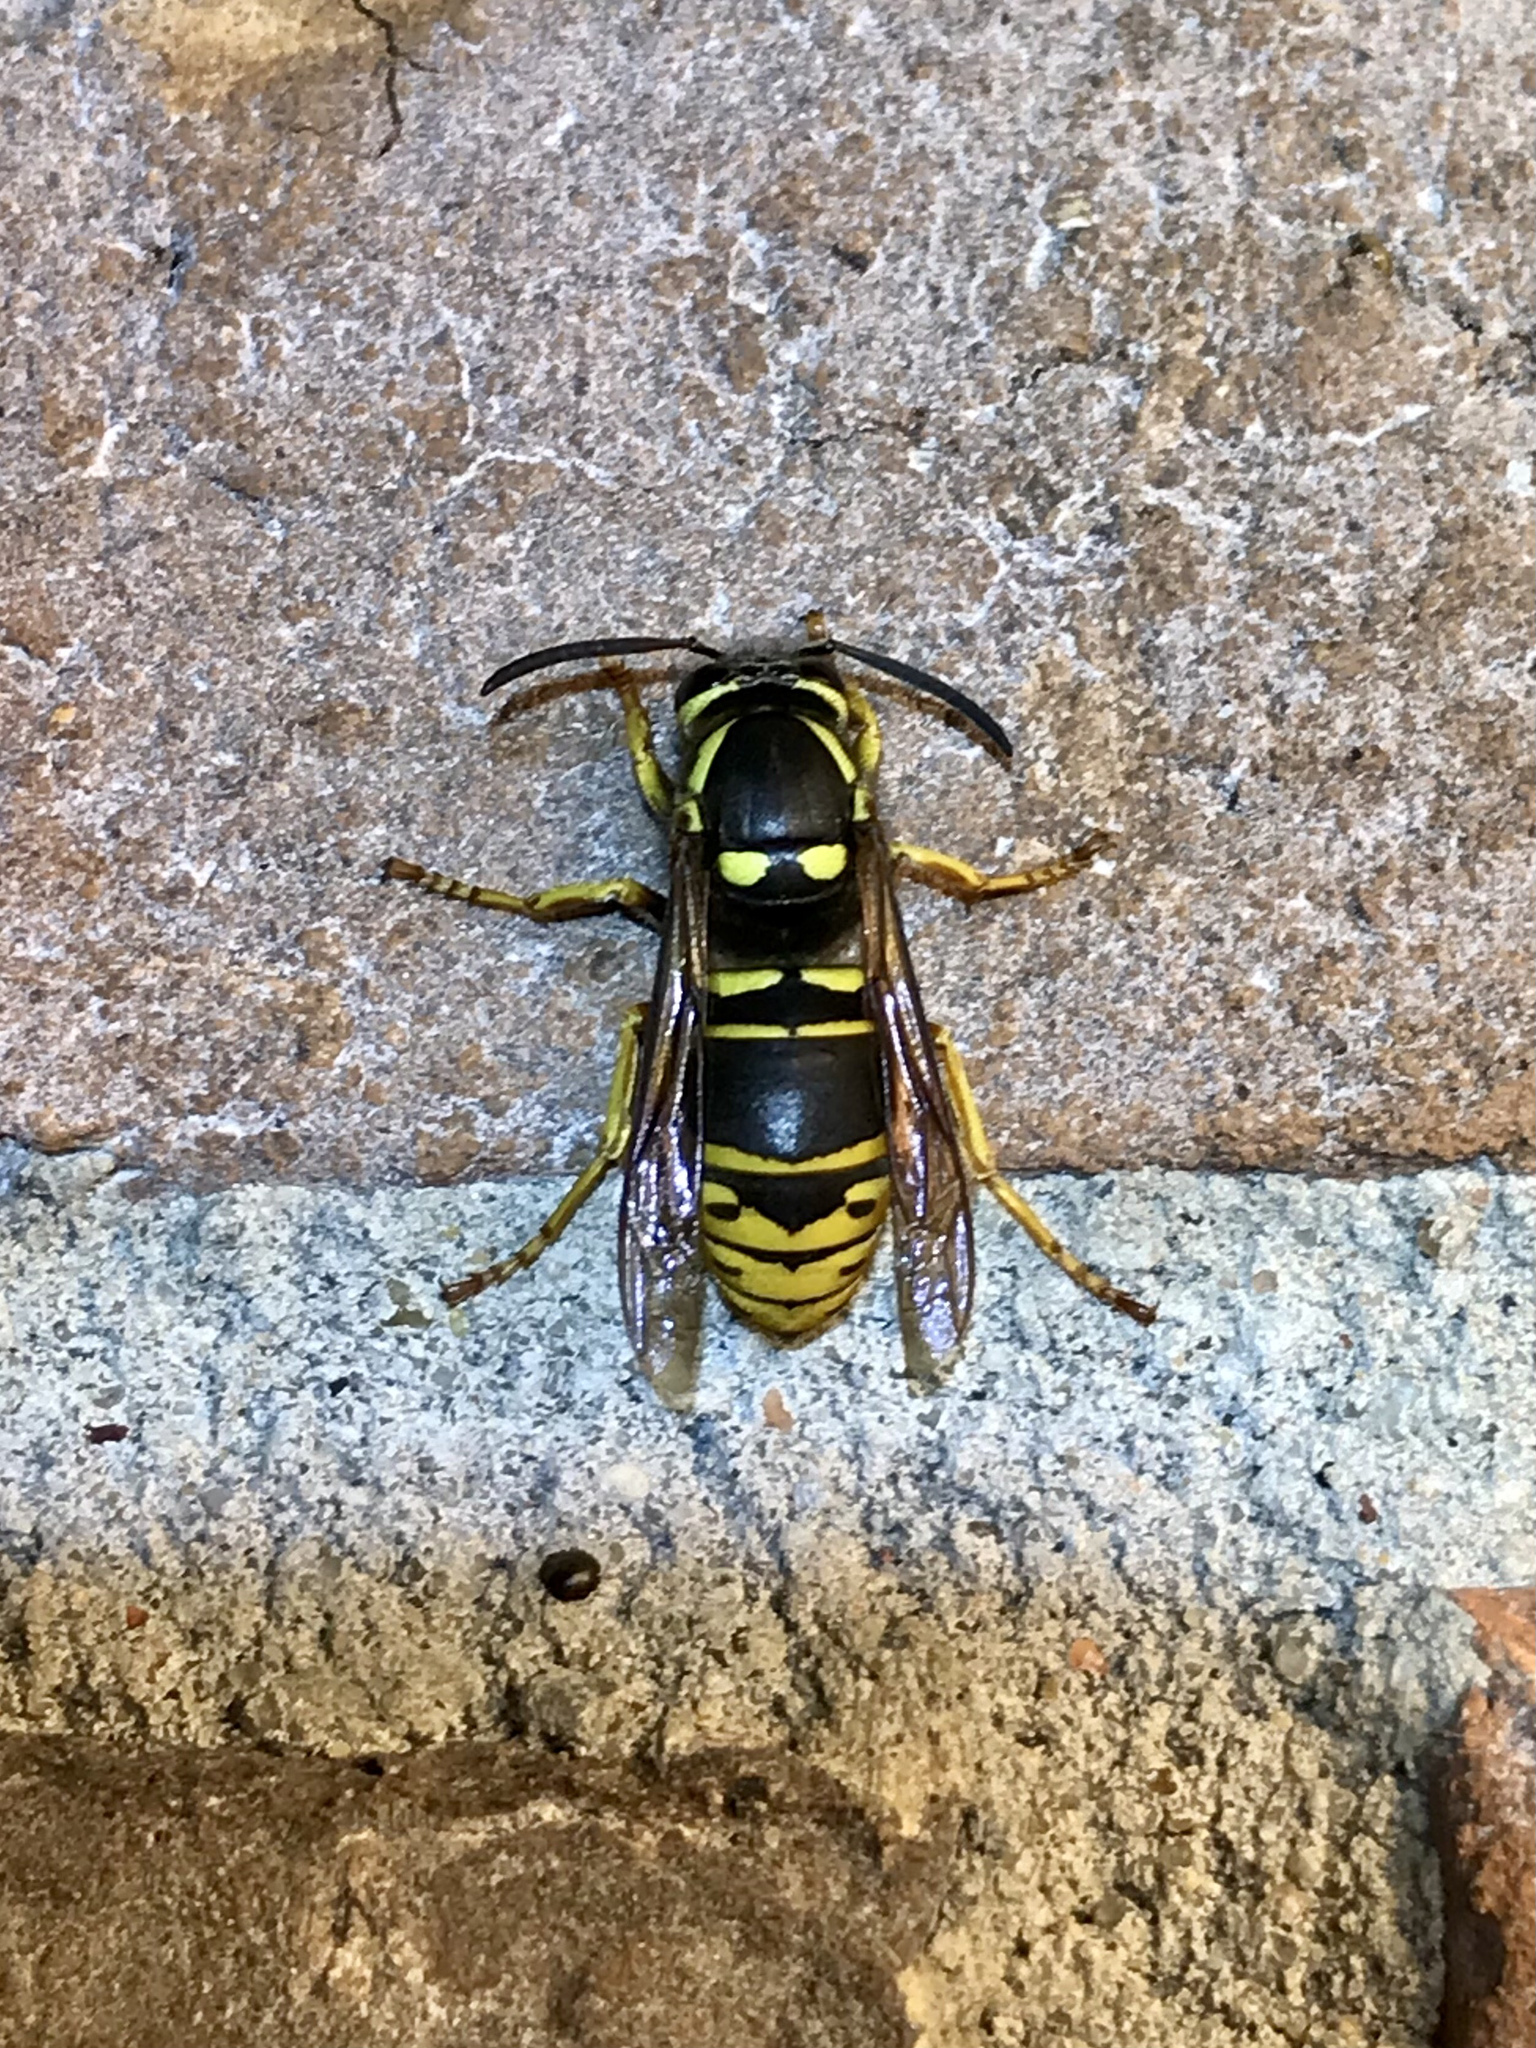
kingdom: Animalia
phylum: Arthropoda
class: Insecta
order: Hymenoptera
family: Vespidae
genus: Vespula
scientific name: Vespula vidua
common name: Widow yellowjacket
